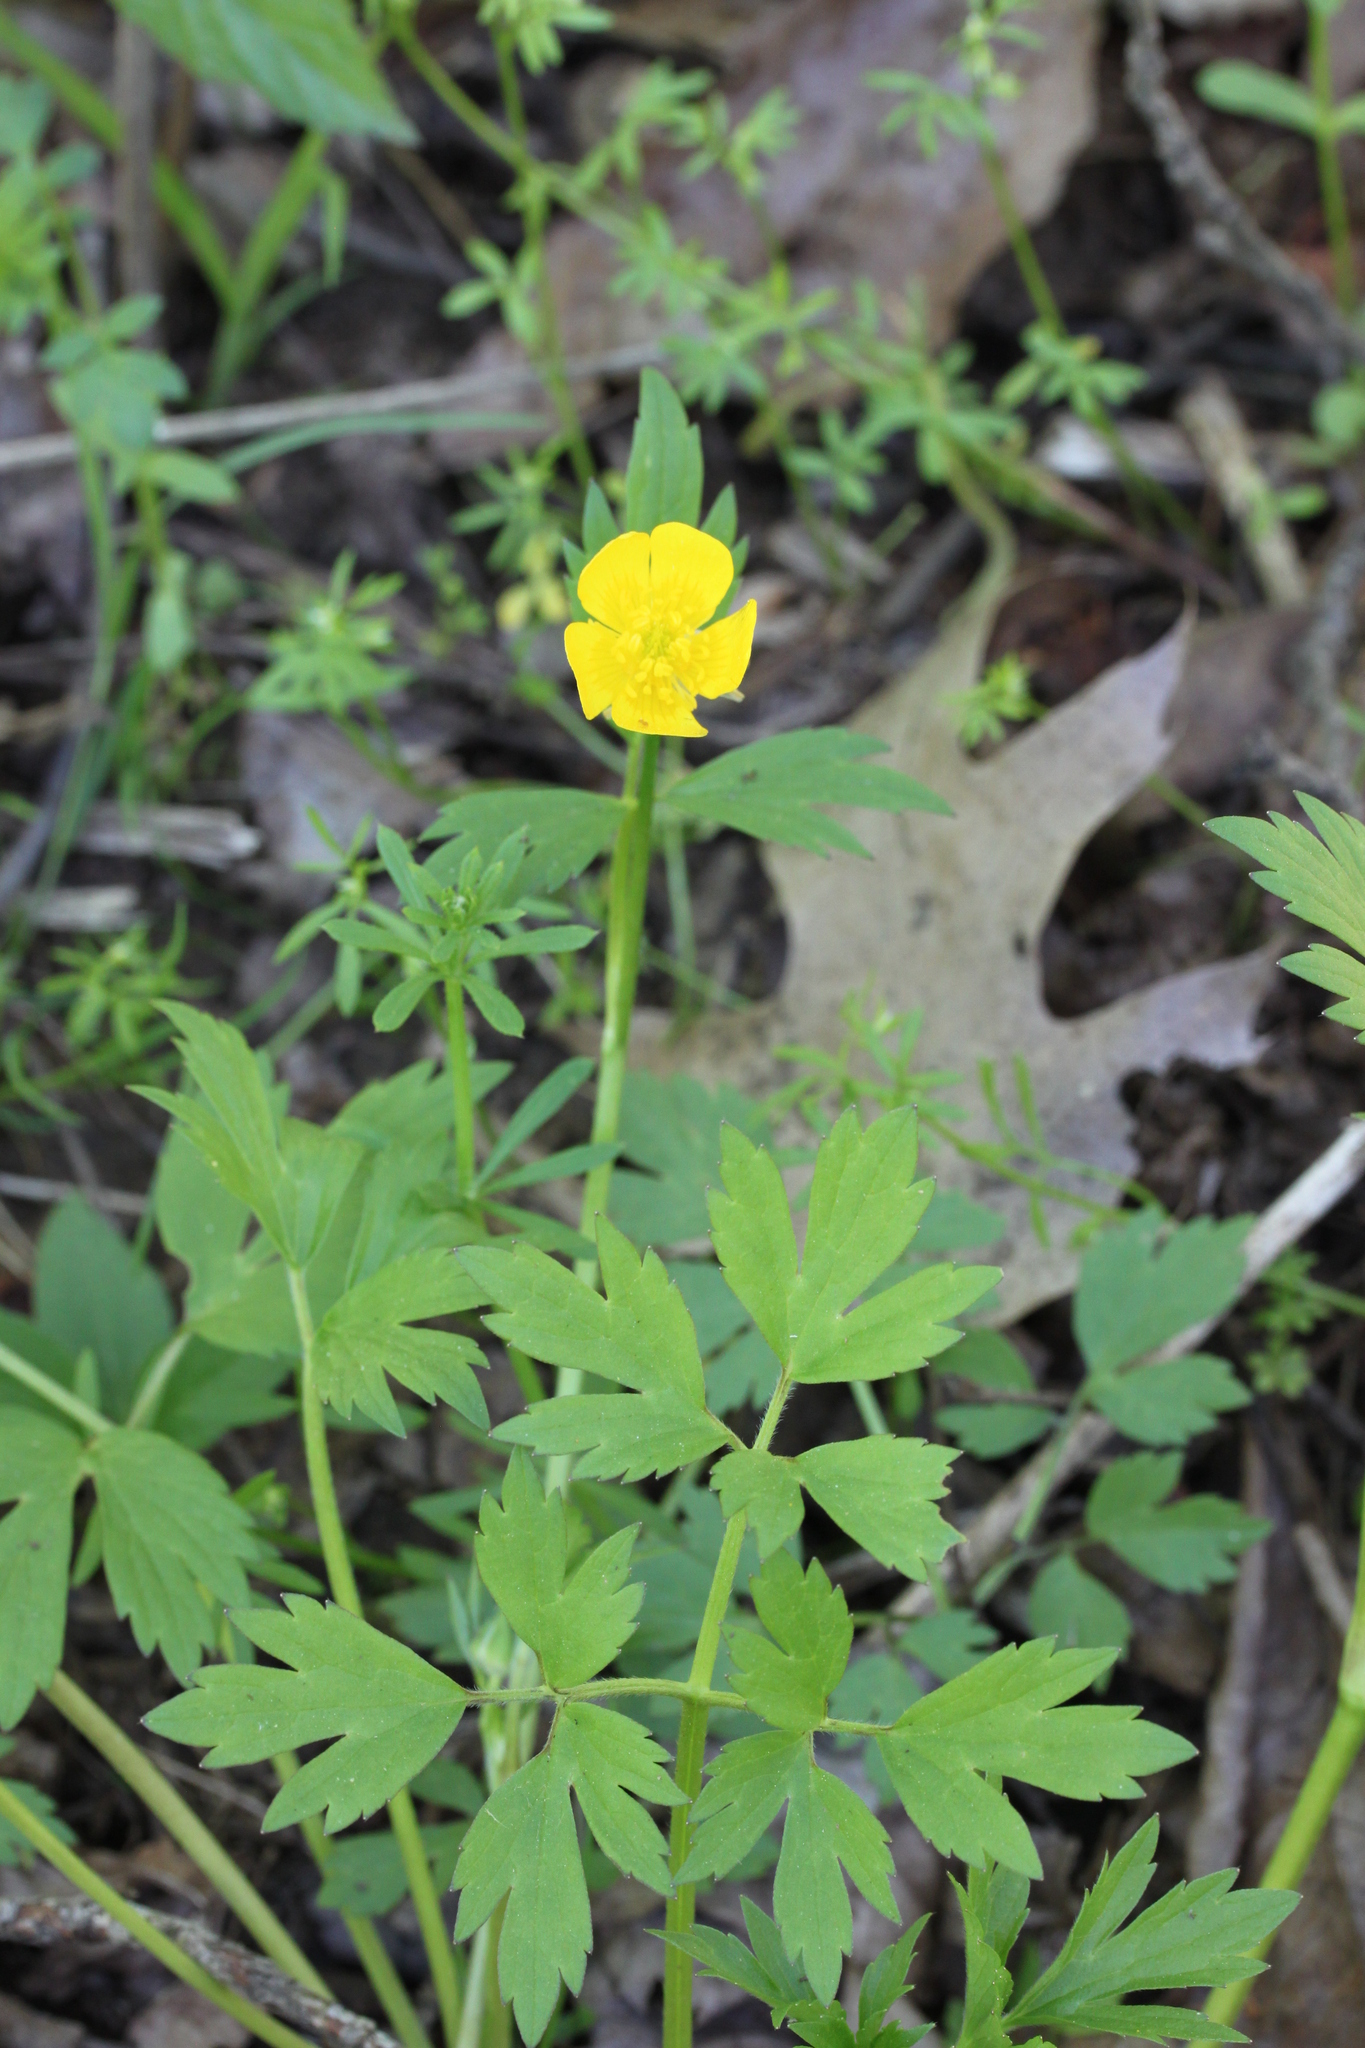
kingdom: Plantae
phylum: Tracheophyta
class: Magnoliopsida
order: Ranunculales
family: Ranunculaceae
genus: Ranunculus
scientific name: Ranunculus hispidus
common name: Bristly buttercup
